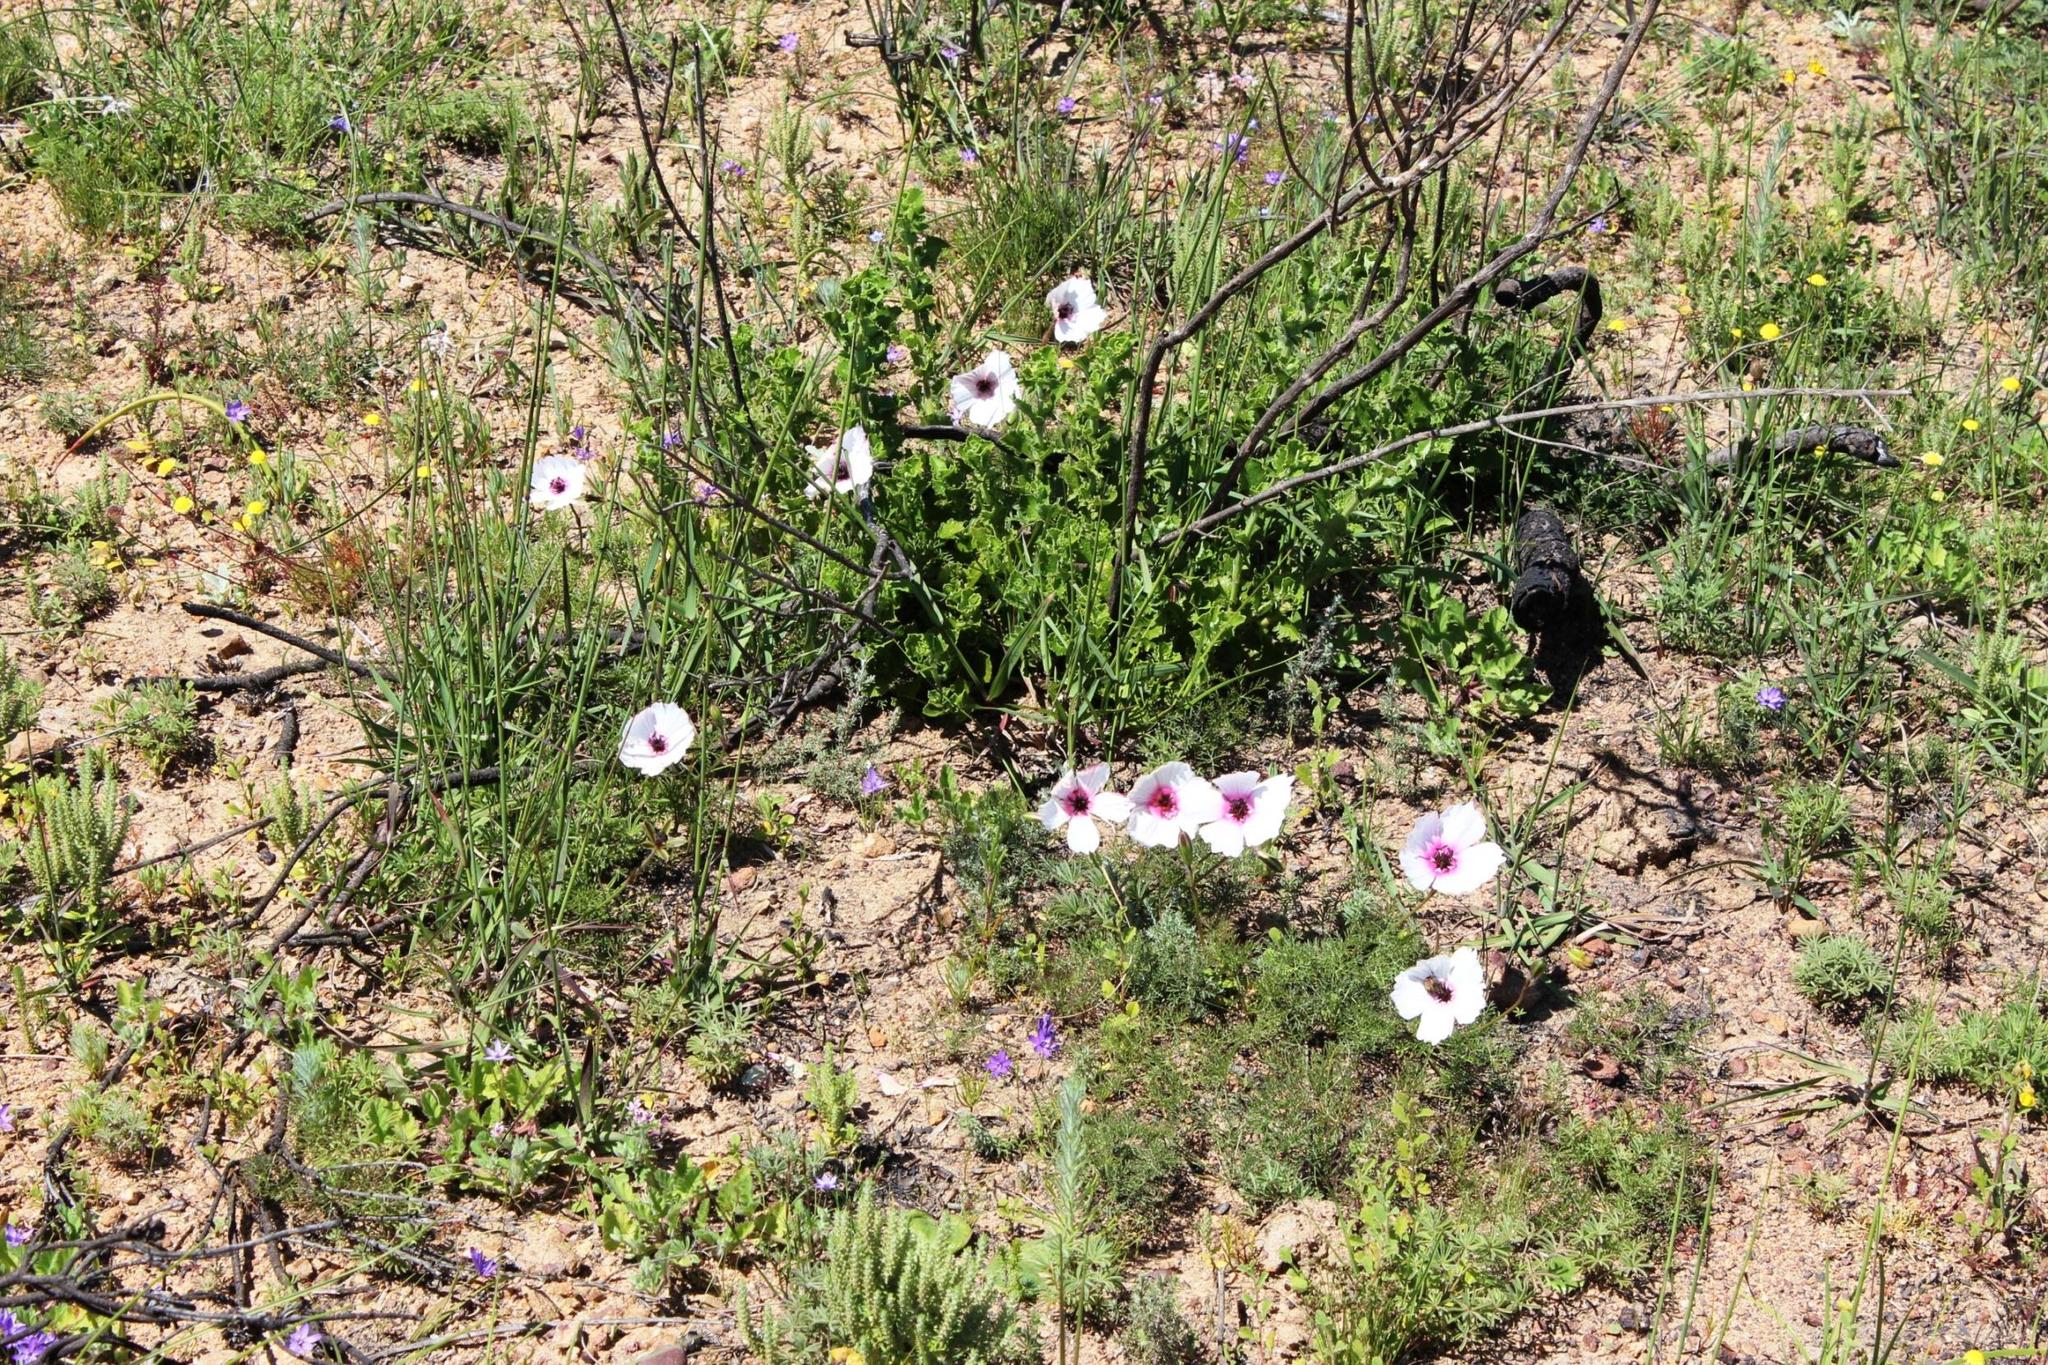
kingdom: Plantae
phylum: Tracheophyta
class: Magnoliopsida
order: Geraniales
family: Geraniaceae
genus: Monsonia
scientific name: Monsonia speciosa
